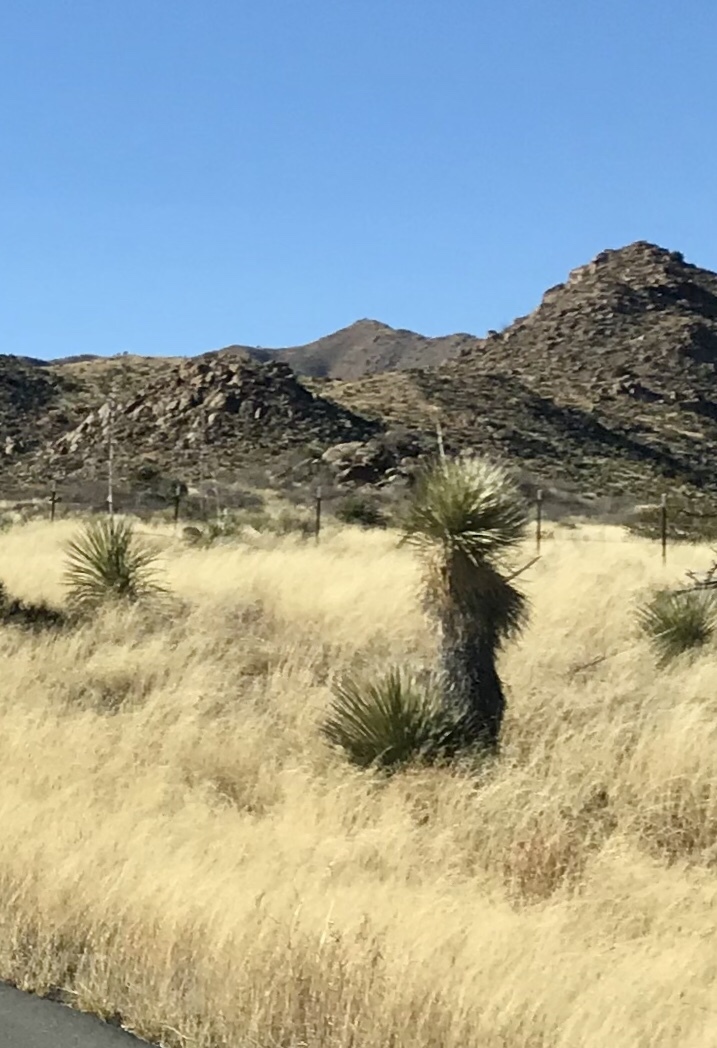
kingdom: Plantae
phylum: Tracheophyta
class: Liliopsida
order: Asparagales
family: Asparagaceae
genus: Yucca
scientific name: Yucca elata
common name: Palmella
